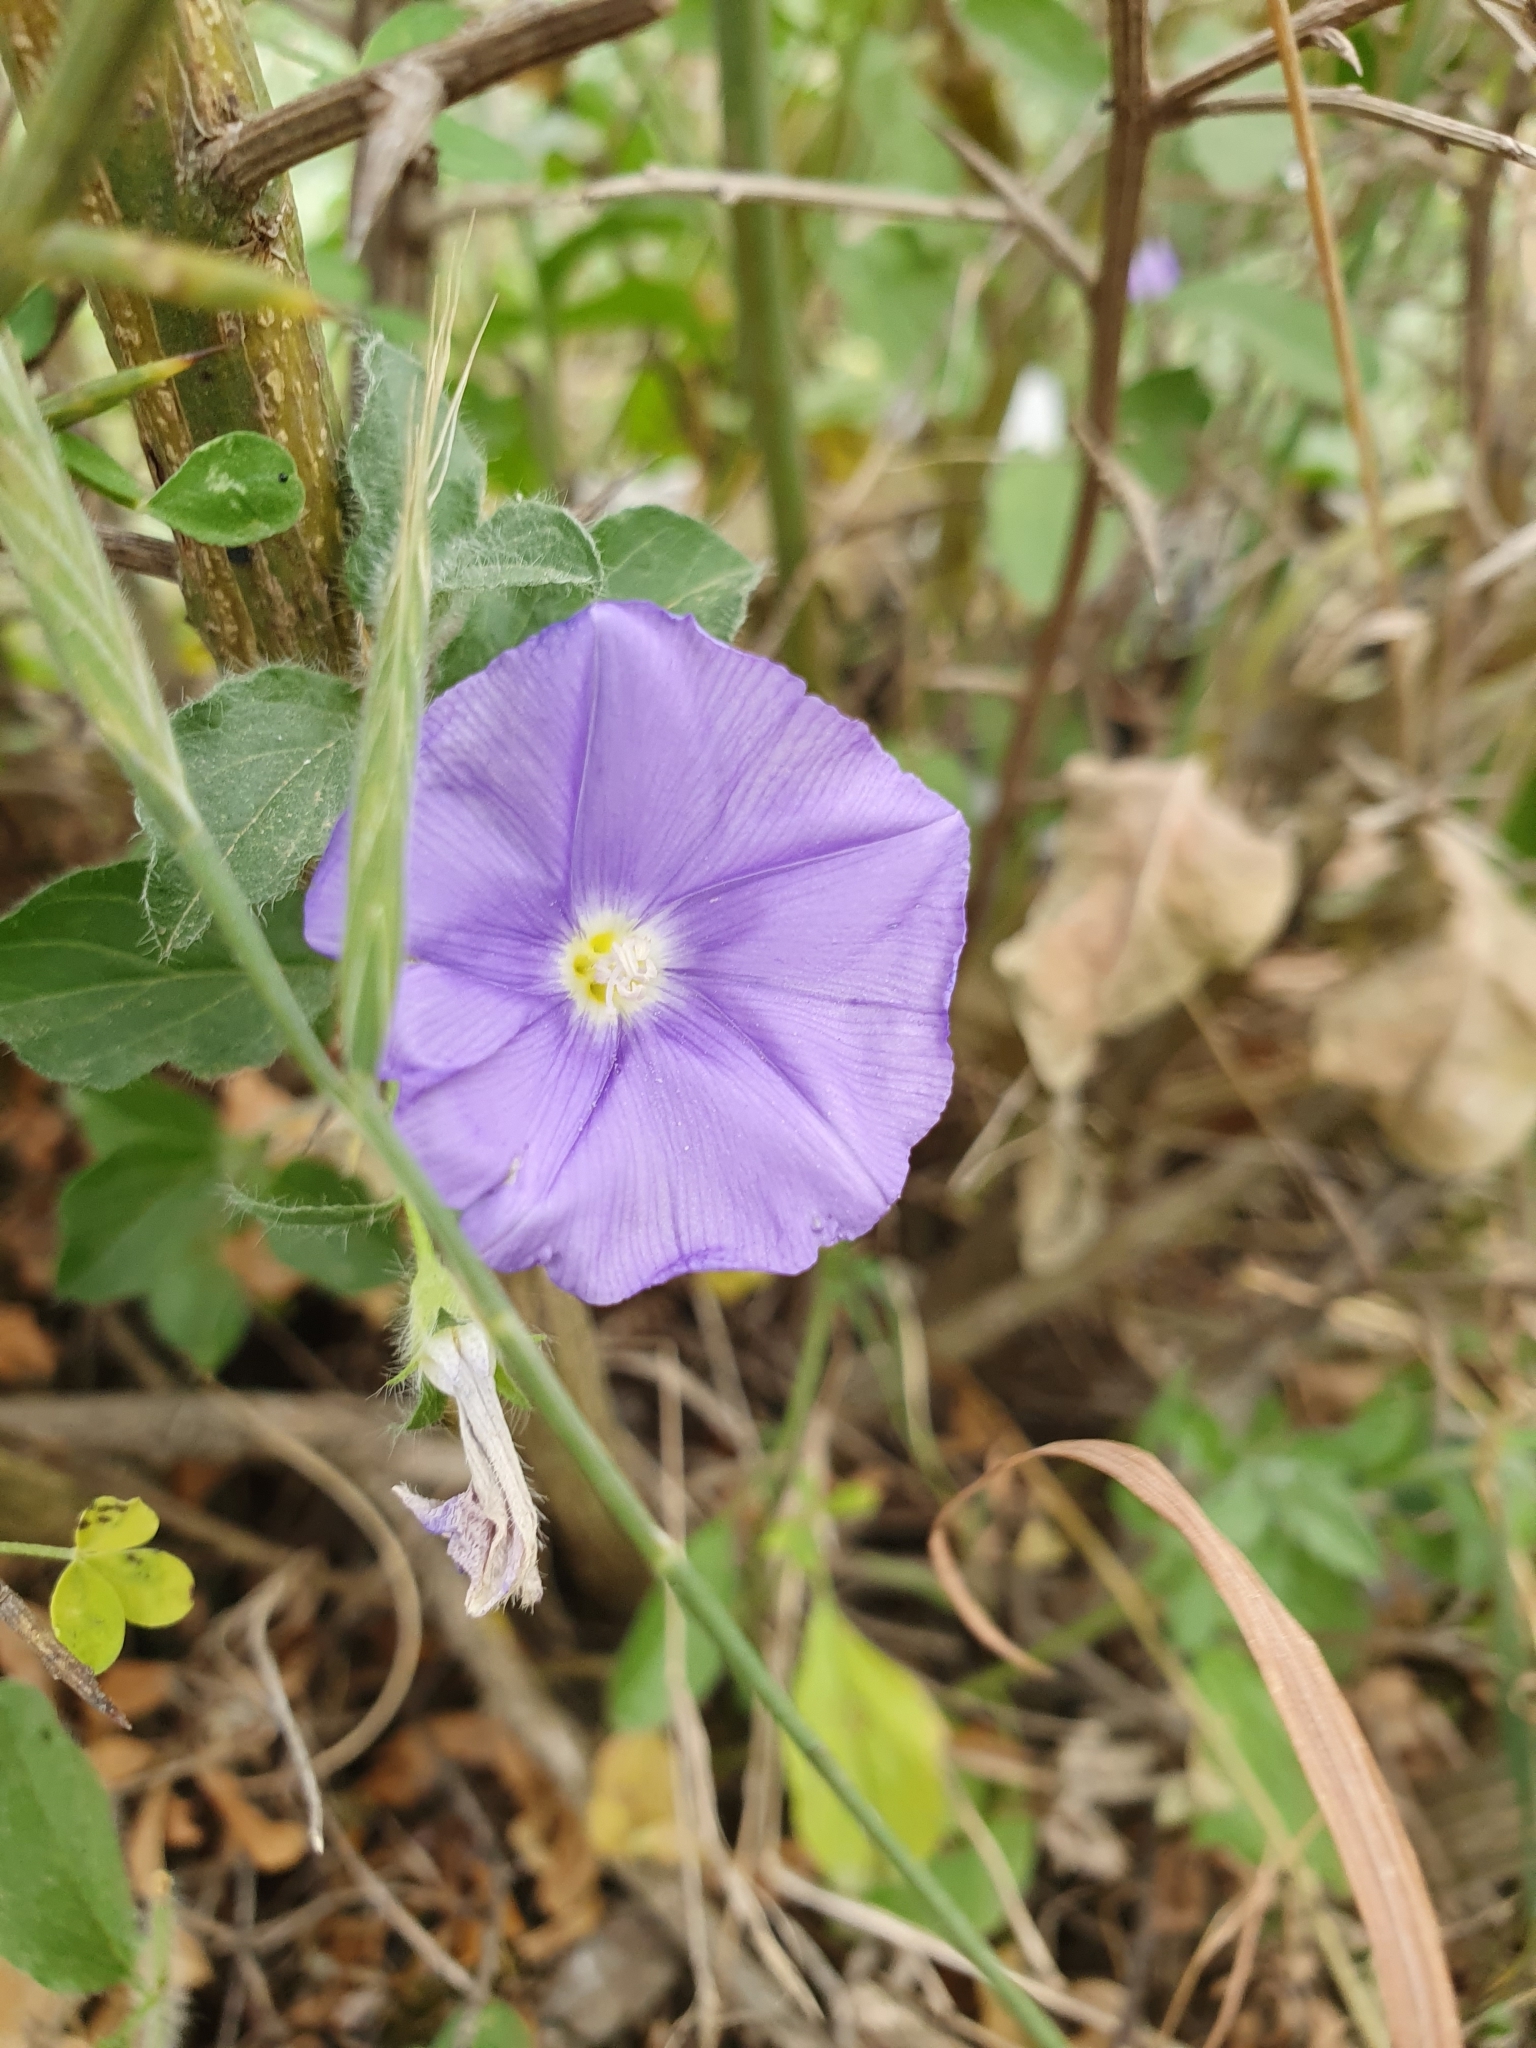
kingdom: Plantae
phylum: Tracheophyta
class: Magnoliopsida
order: Solanales
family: Convolvulaceae
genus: Convolvulus
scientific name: Convolvulus sabatius
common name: Ground blue-convolvulus
